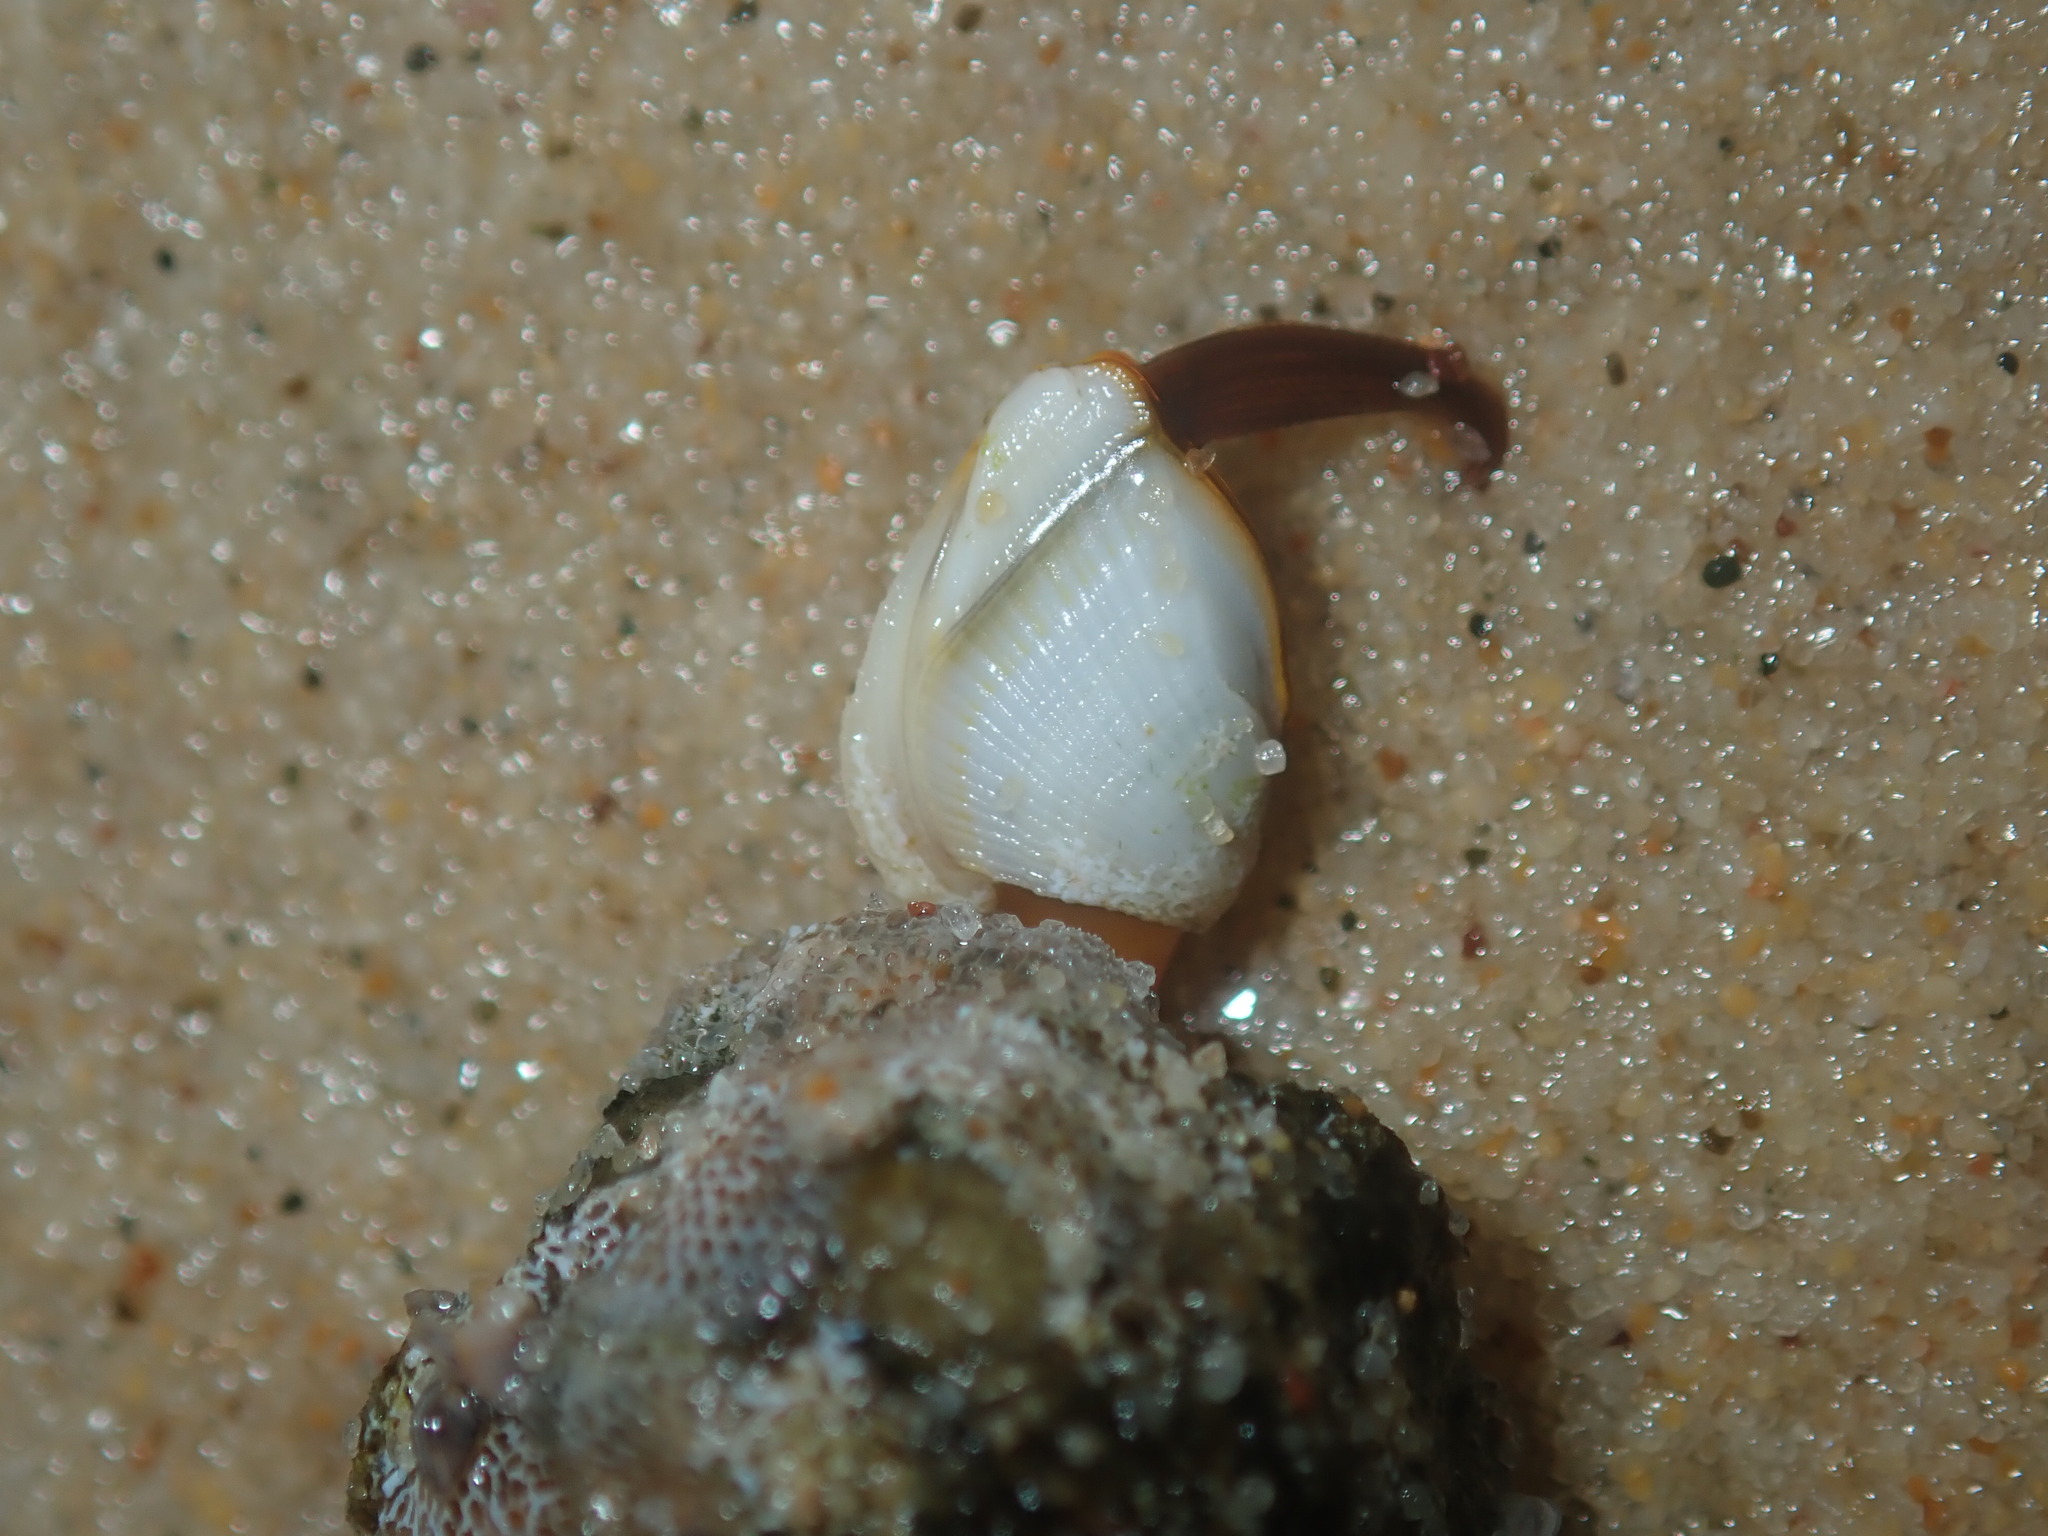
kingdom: Animalia
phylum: Arthropoda
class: Maxillopoda
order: Pedunculata
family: Lepadidae
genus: Lepas
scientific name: Lepas anserifera
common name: Goose barnacle
